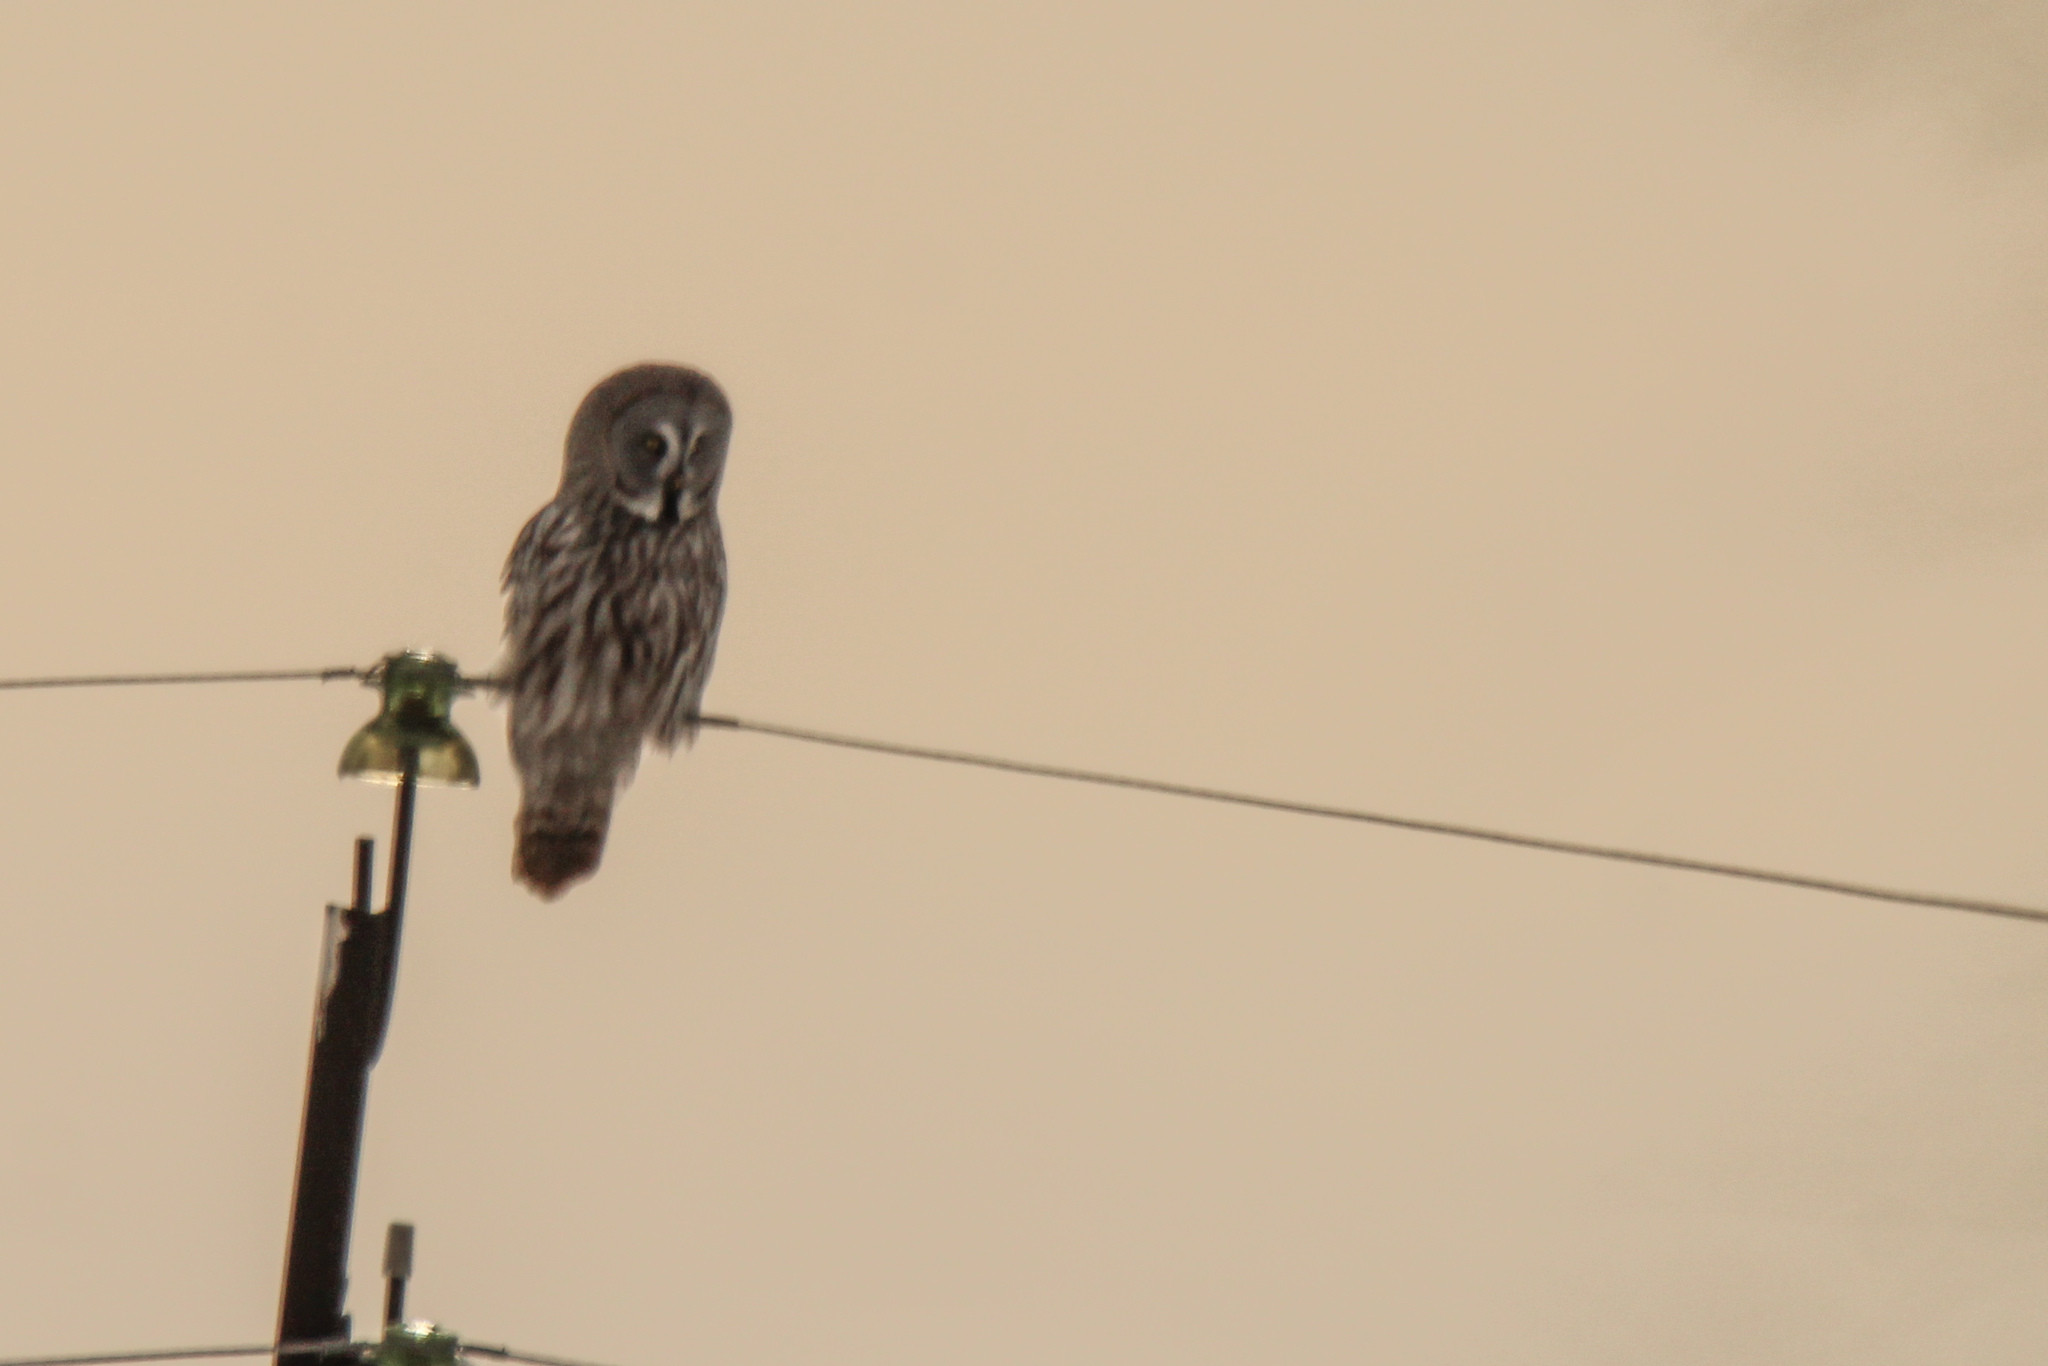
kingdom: Animalia
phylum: Chordata
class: Aves
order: Strigiformes
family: Strigidae
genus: Strix
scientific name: Strix nebulosa
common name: Great grey owl
